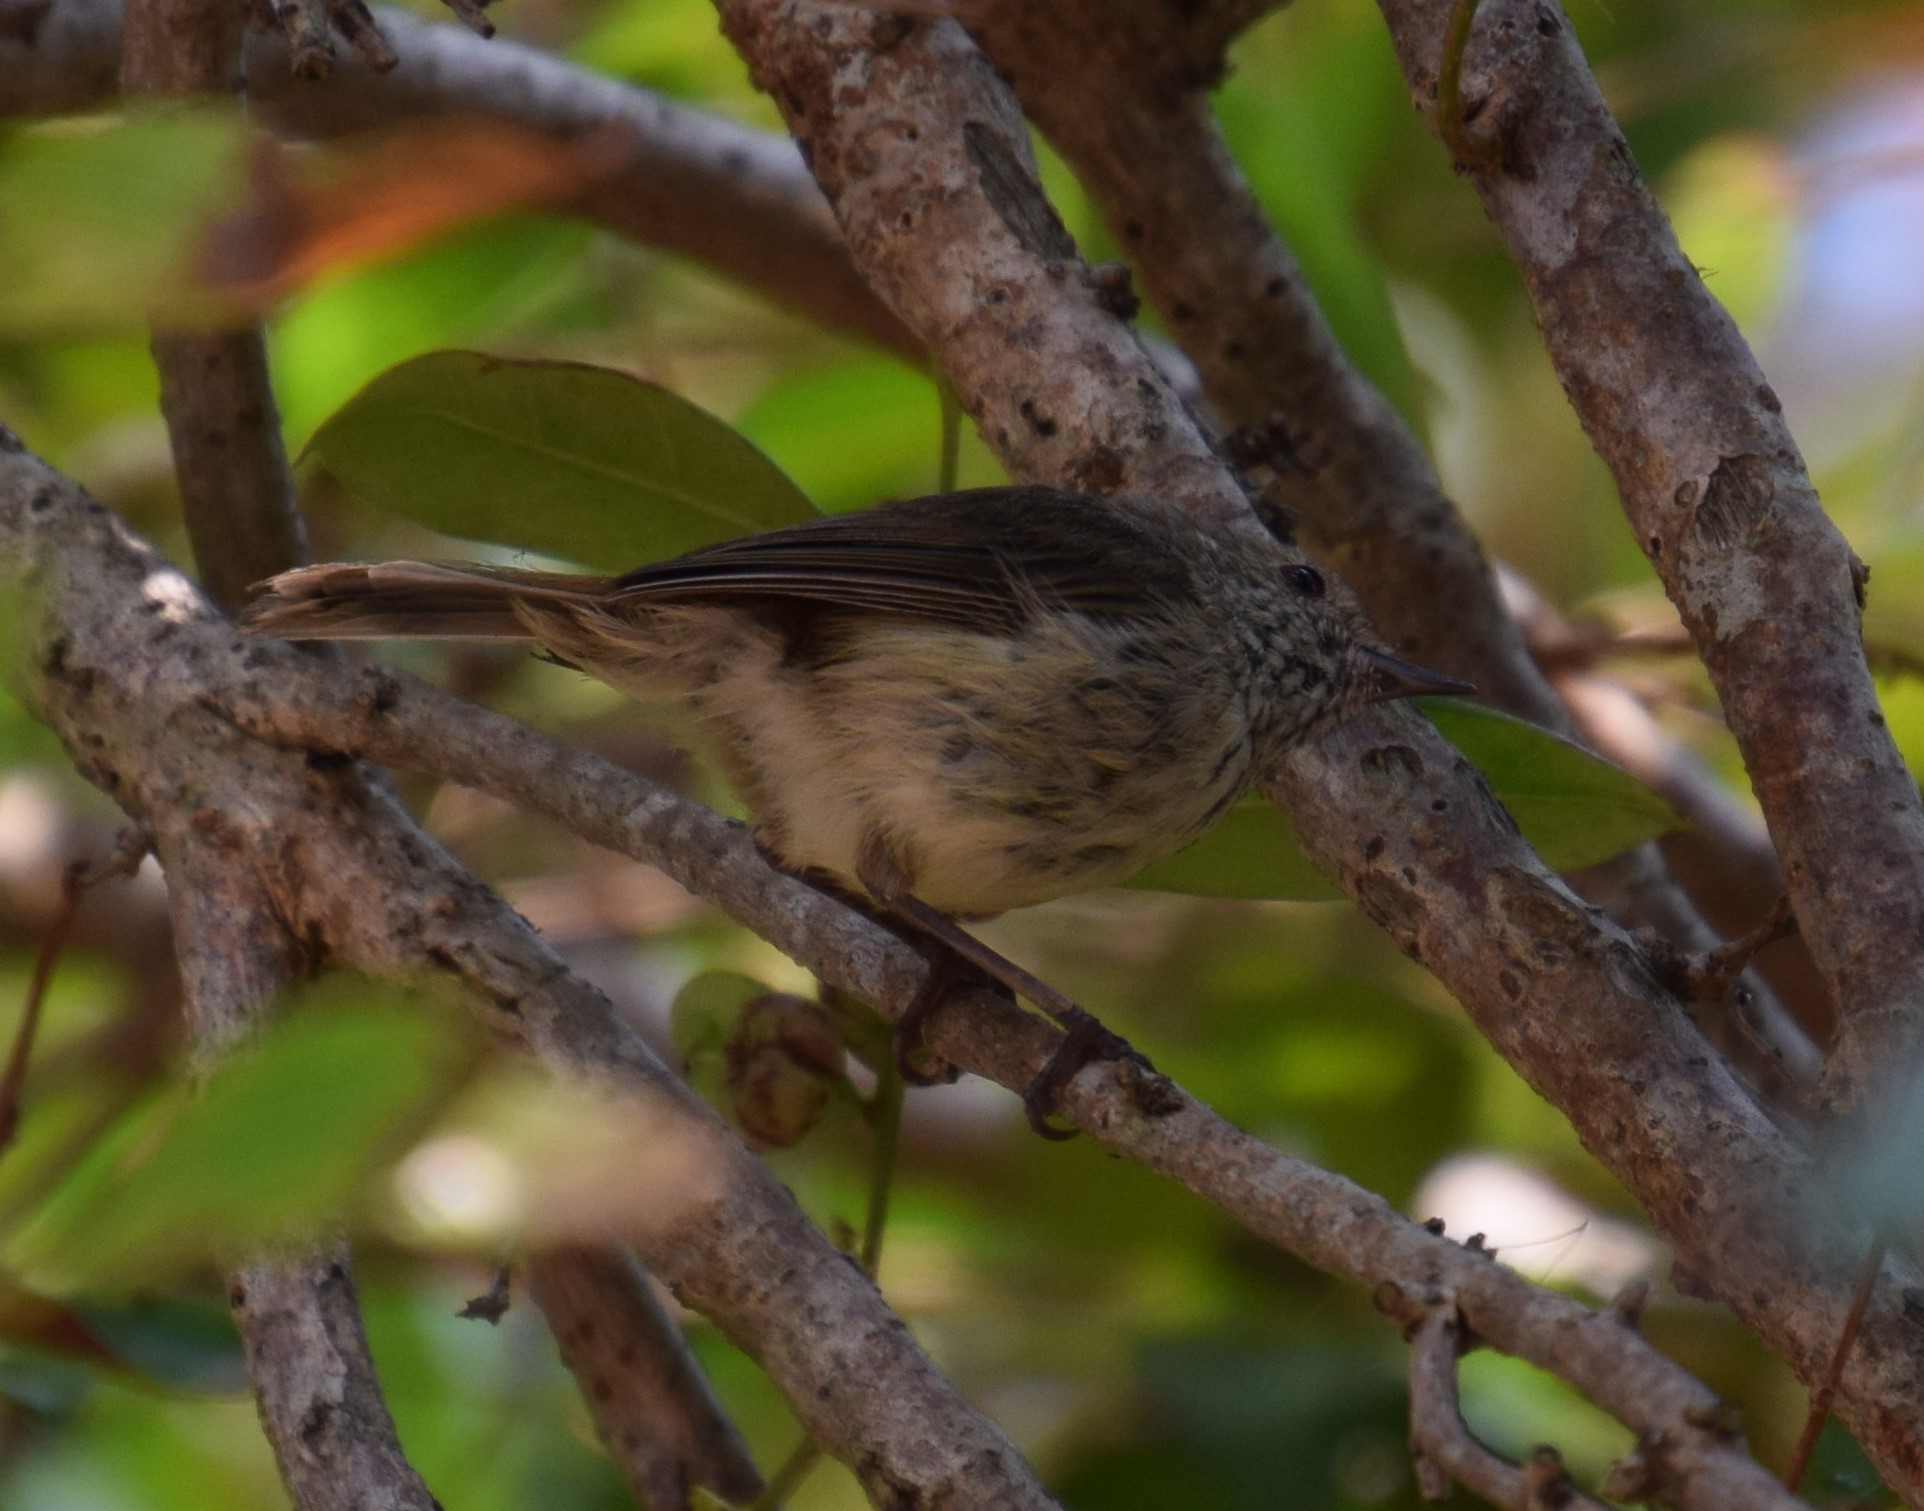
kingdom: Animalia
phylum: Chordata
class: Aves
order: Passeriformes
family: Acanthizidae
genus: Acanthiza
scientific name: Acanthiza pusilla
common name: Brown thornbill
